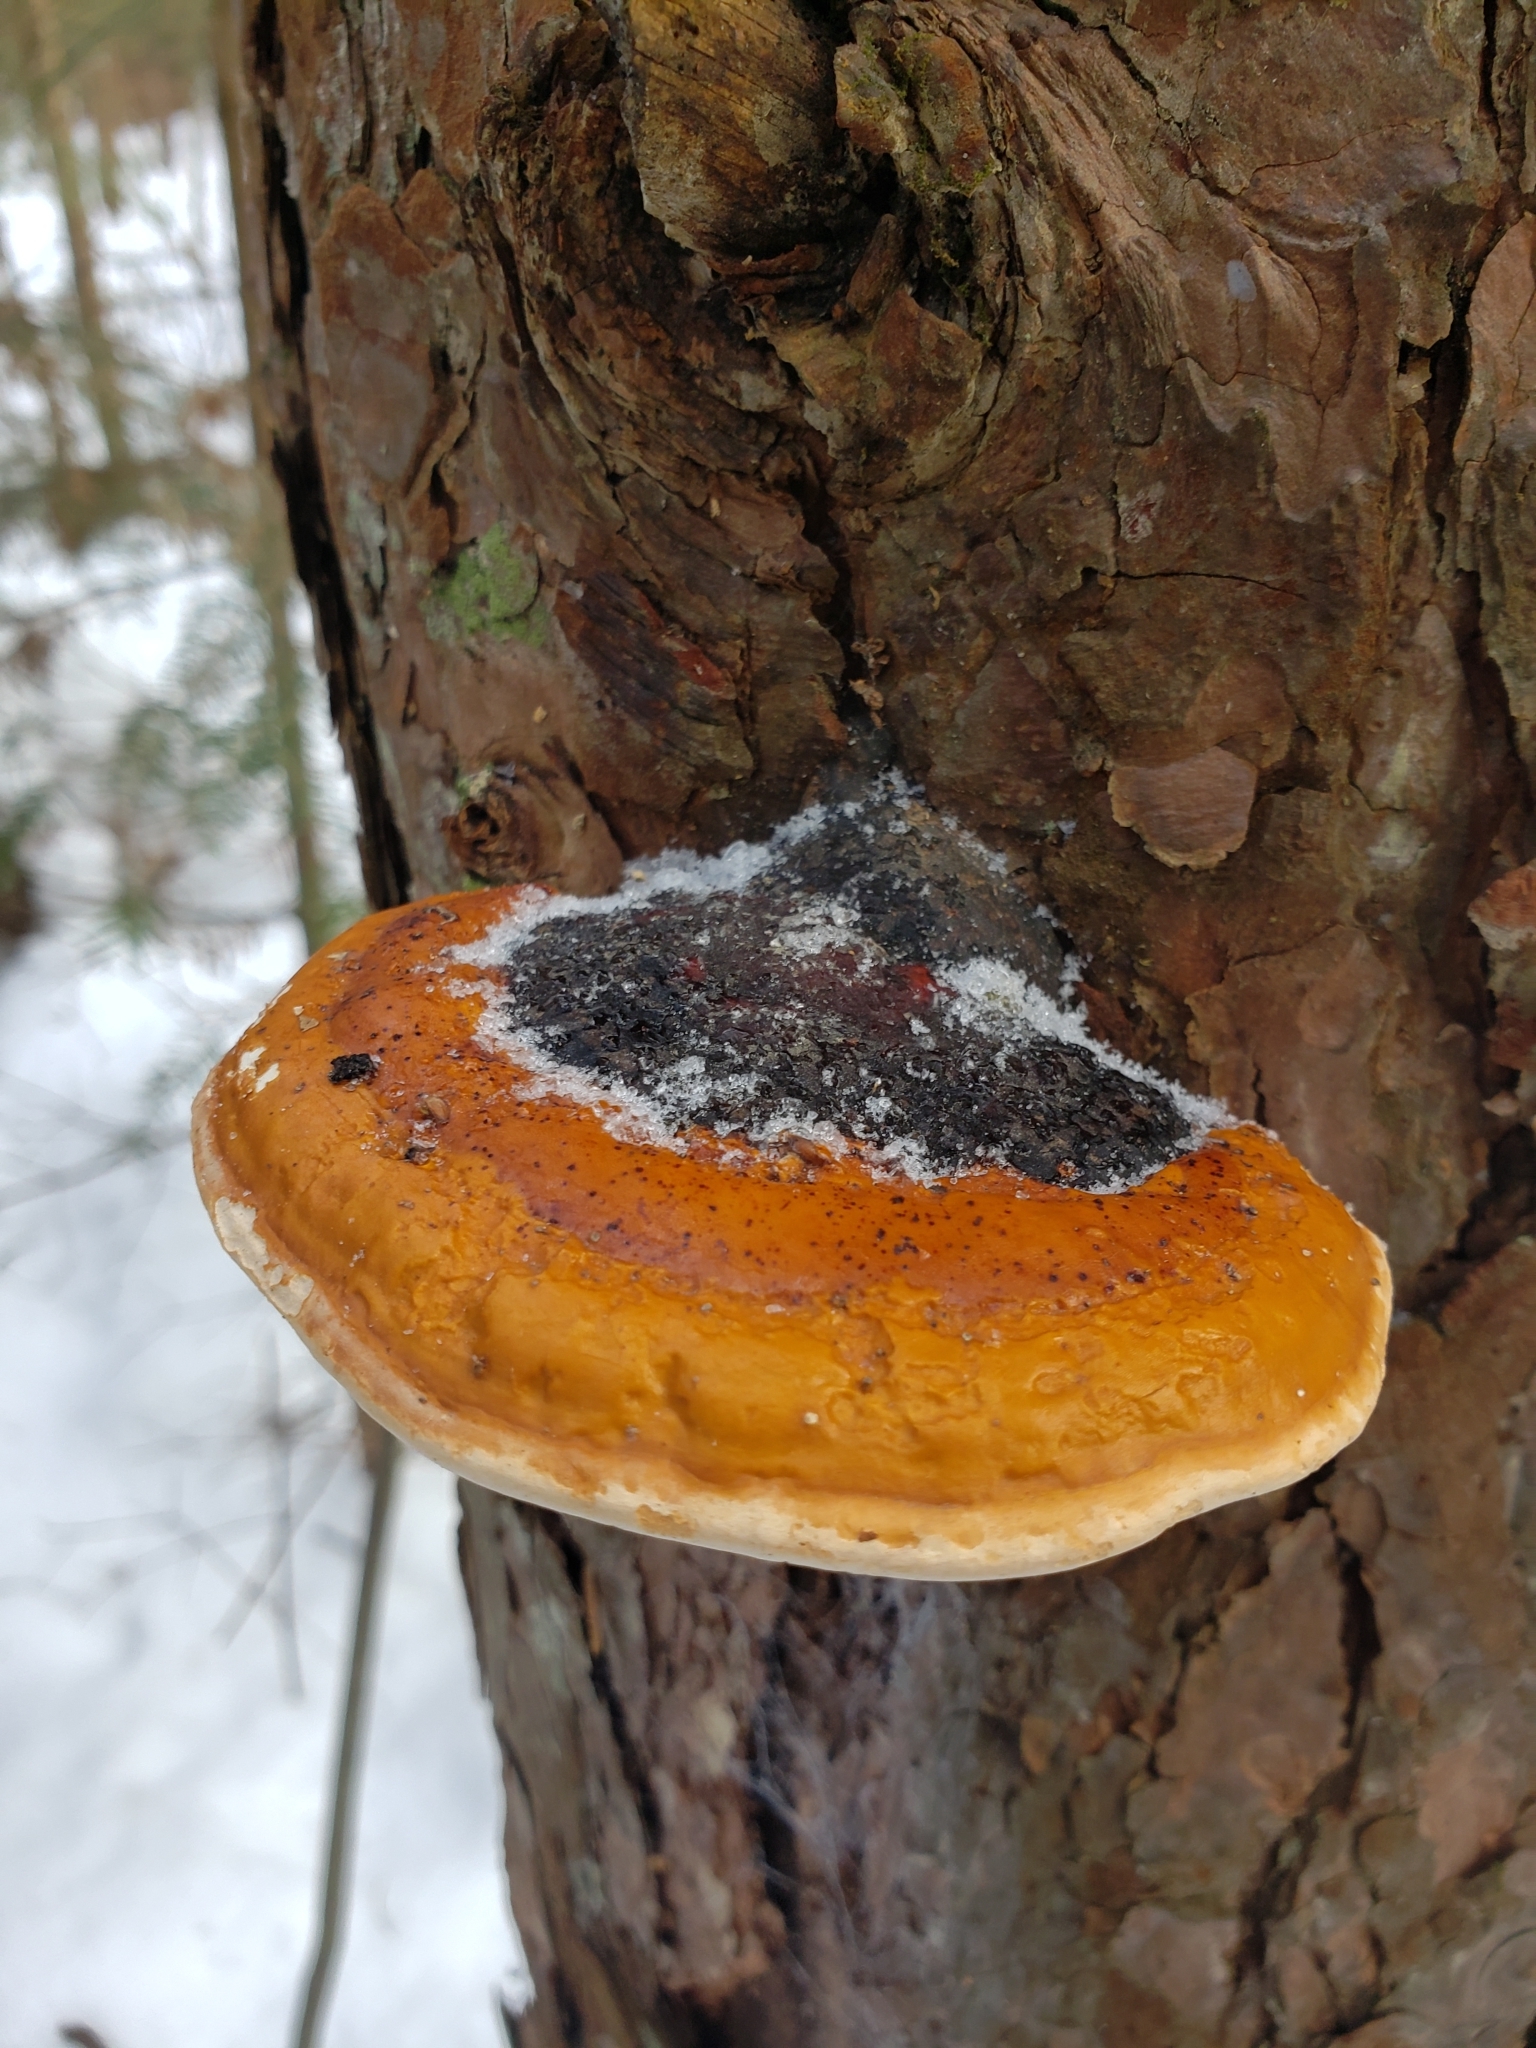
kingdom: Fungi
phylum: Basidiomycota
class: Agaricomycetes
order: Polyporales
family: Fomitopsidaceae
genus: Fomitopsis
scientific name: Fomitopsis mounceae
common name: Northern red belt
